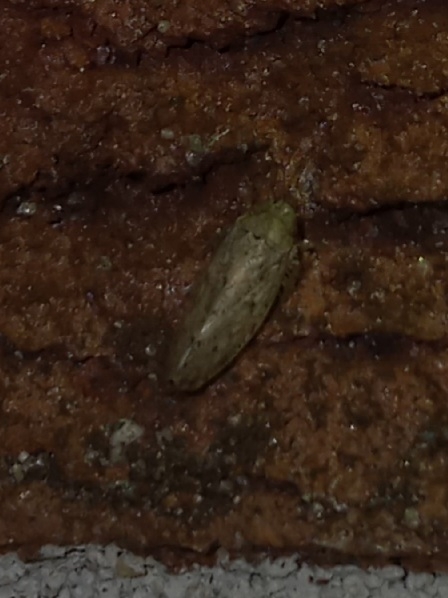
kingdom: Animalia
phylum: Arthropoda
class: Insecta
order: Hemiptera
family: Cicadellidae
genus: Curtara
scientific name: Curtara insularis
